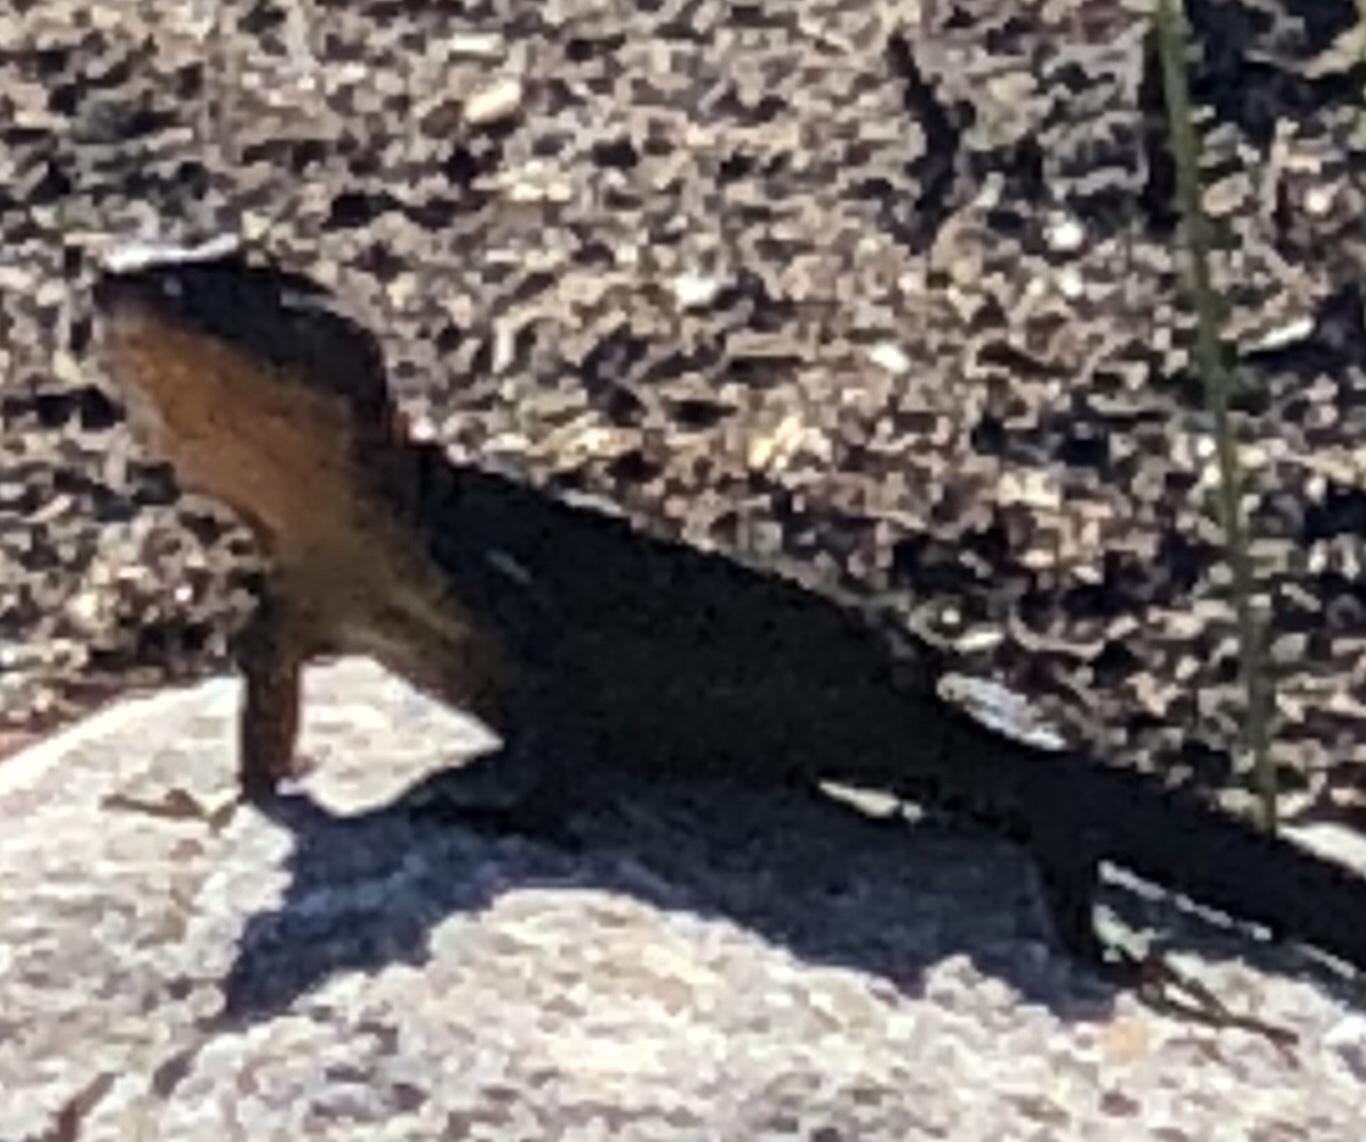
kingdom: Animalia
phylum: Chordata
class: Squamata
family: Cordylidae
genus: Ninurta
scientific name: Ninurta coeruleopunctatus
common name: Blue-spotted girdled lizard
